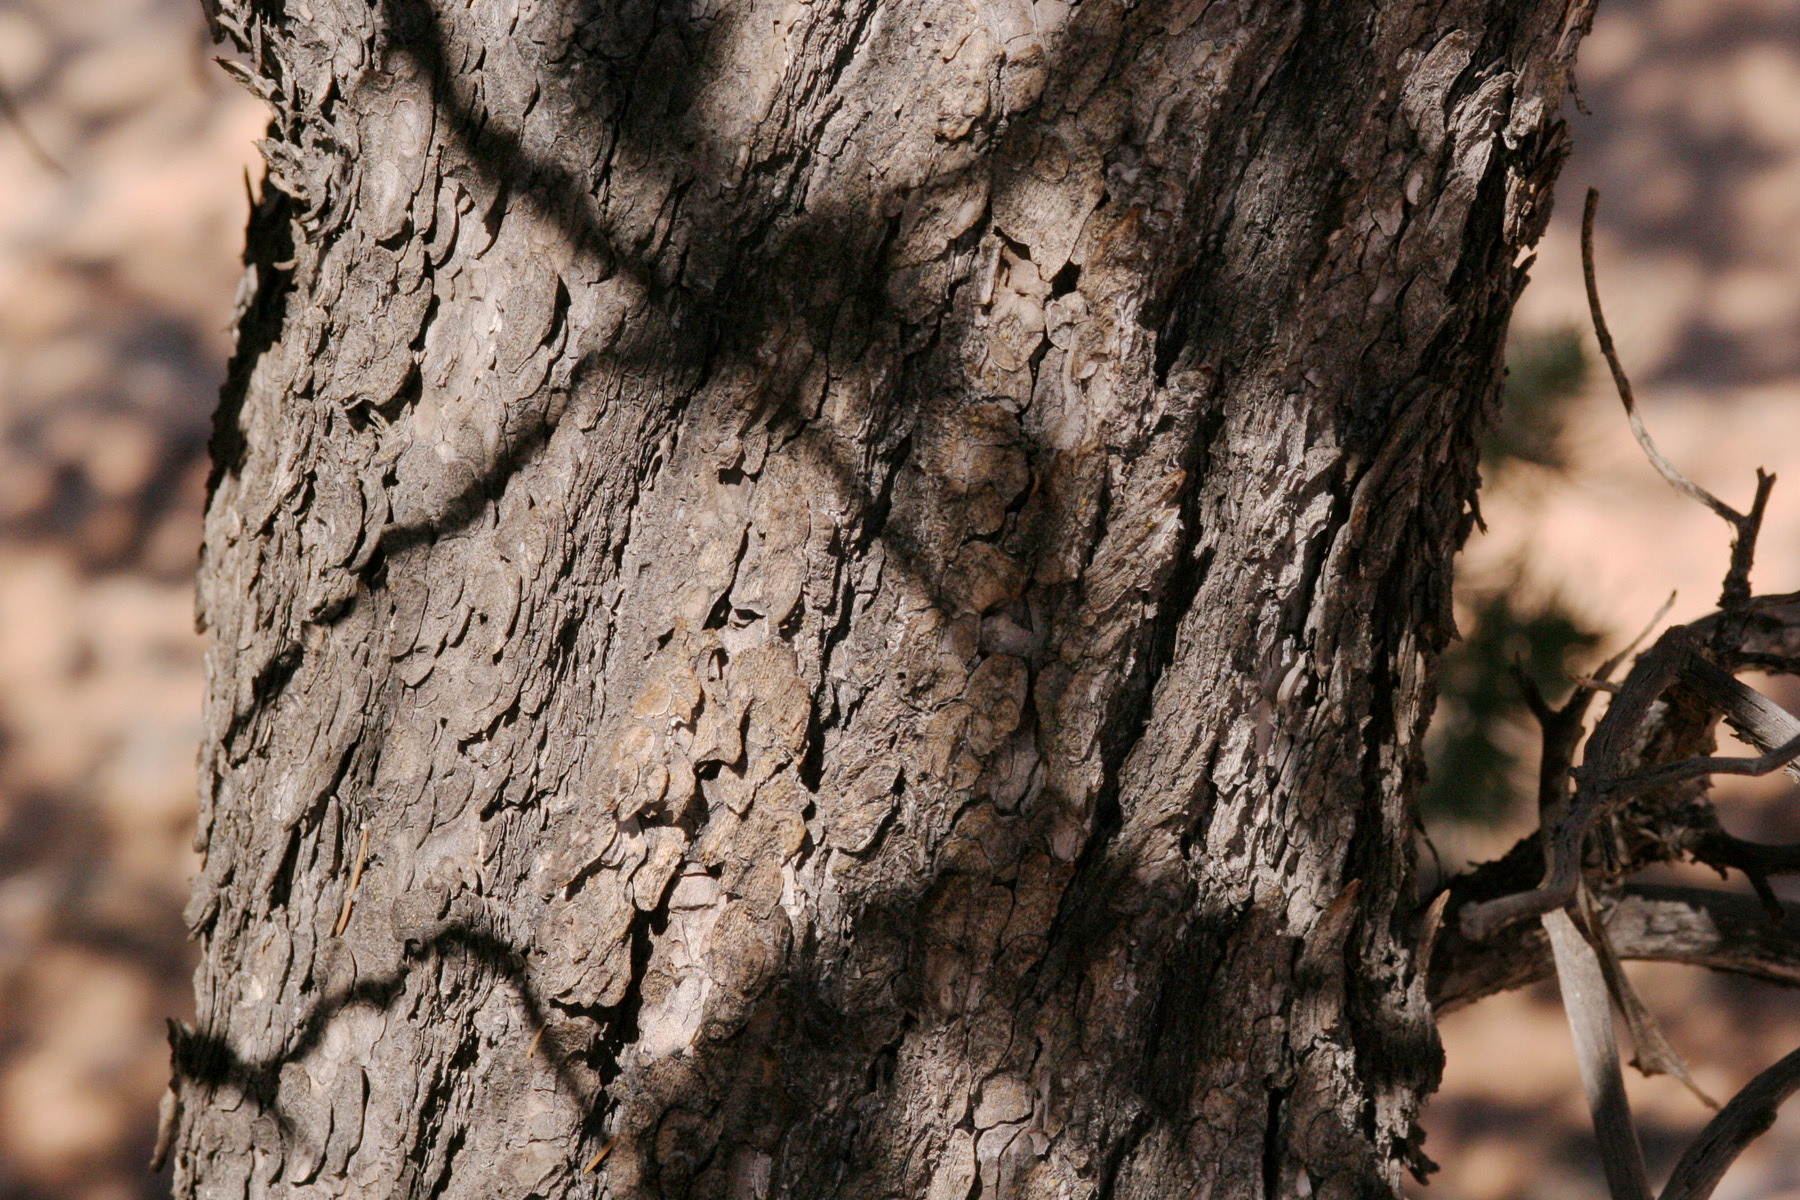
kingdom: Plantae
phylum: Tracheophyta
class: Pinopsida
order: Pinales
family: Pinaceae
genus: Pinus
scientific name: Pinus edulis
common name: Colorado pinyon
